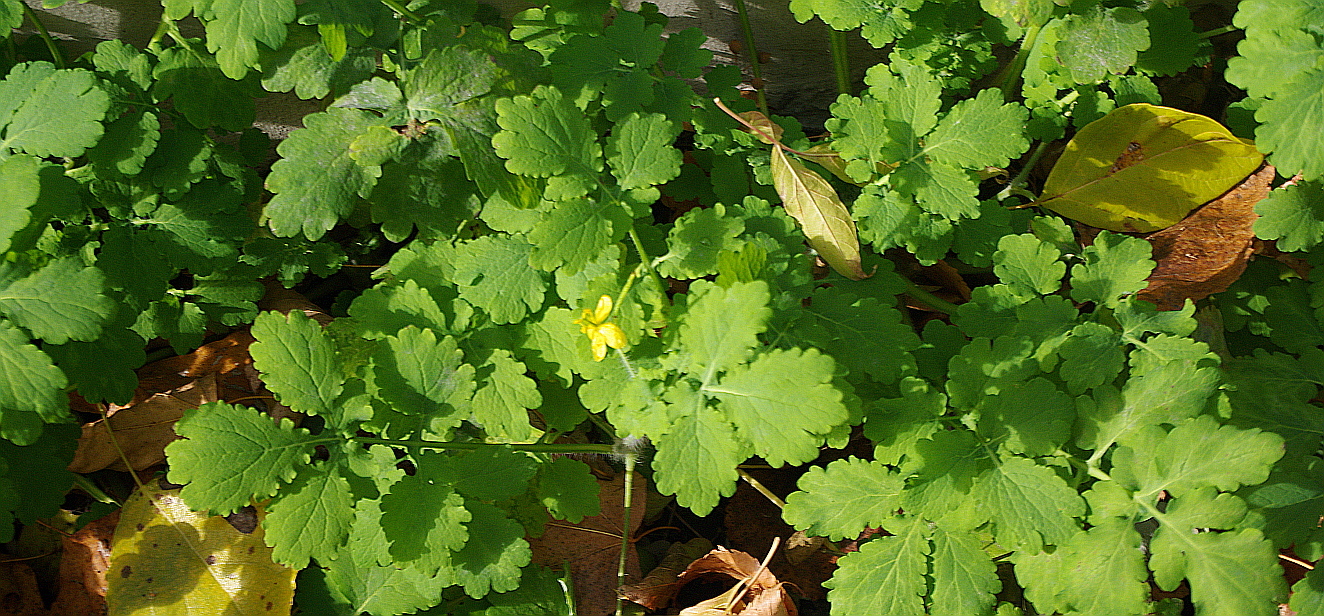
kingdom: Plantae
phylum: Tracheophyta
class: Magnoliopsida
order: Ranunculales
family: Papaveraceae
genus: Chelidonium
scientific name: Chelidonium majus
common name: Greater celandine
